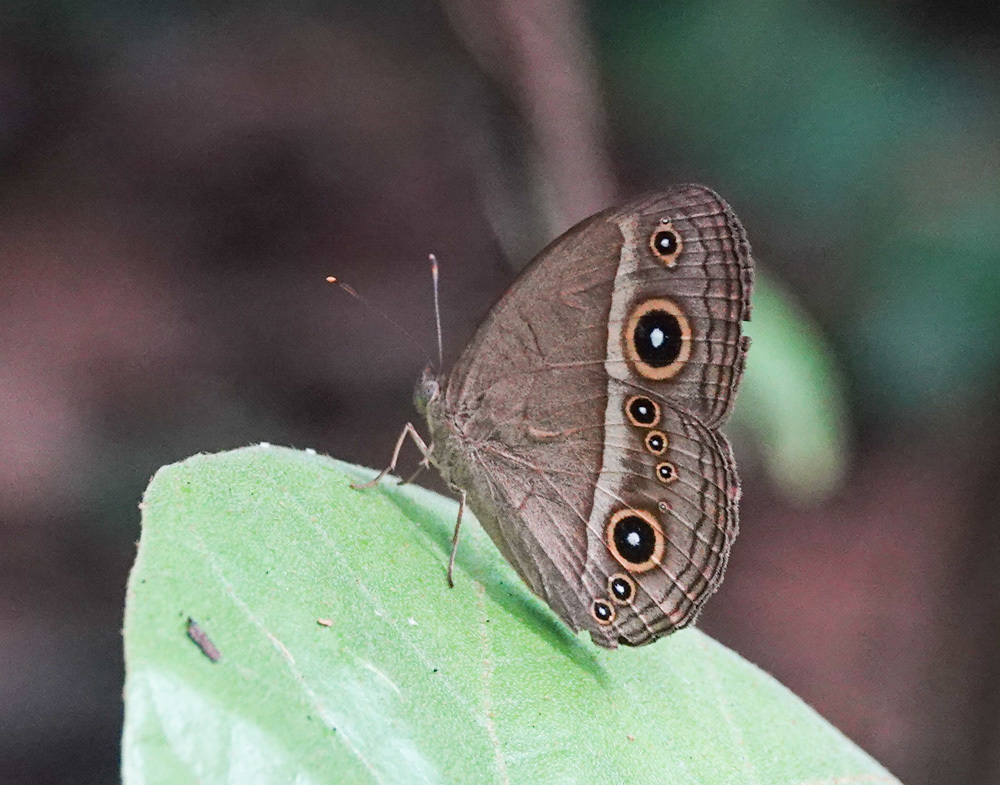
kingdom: Animalia
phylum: Arthropoda
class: Insecta
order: Lepidoptera
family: Nymphalidae
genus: Mycalesis
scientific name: Mycalesis gotama
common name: Chinese bushbrown
